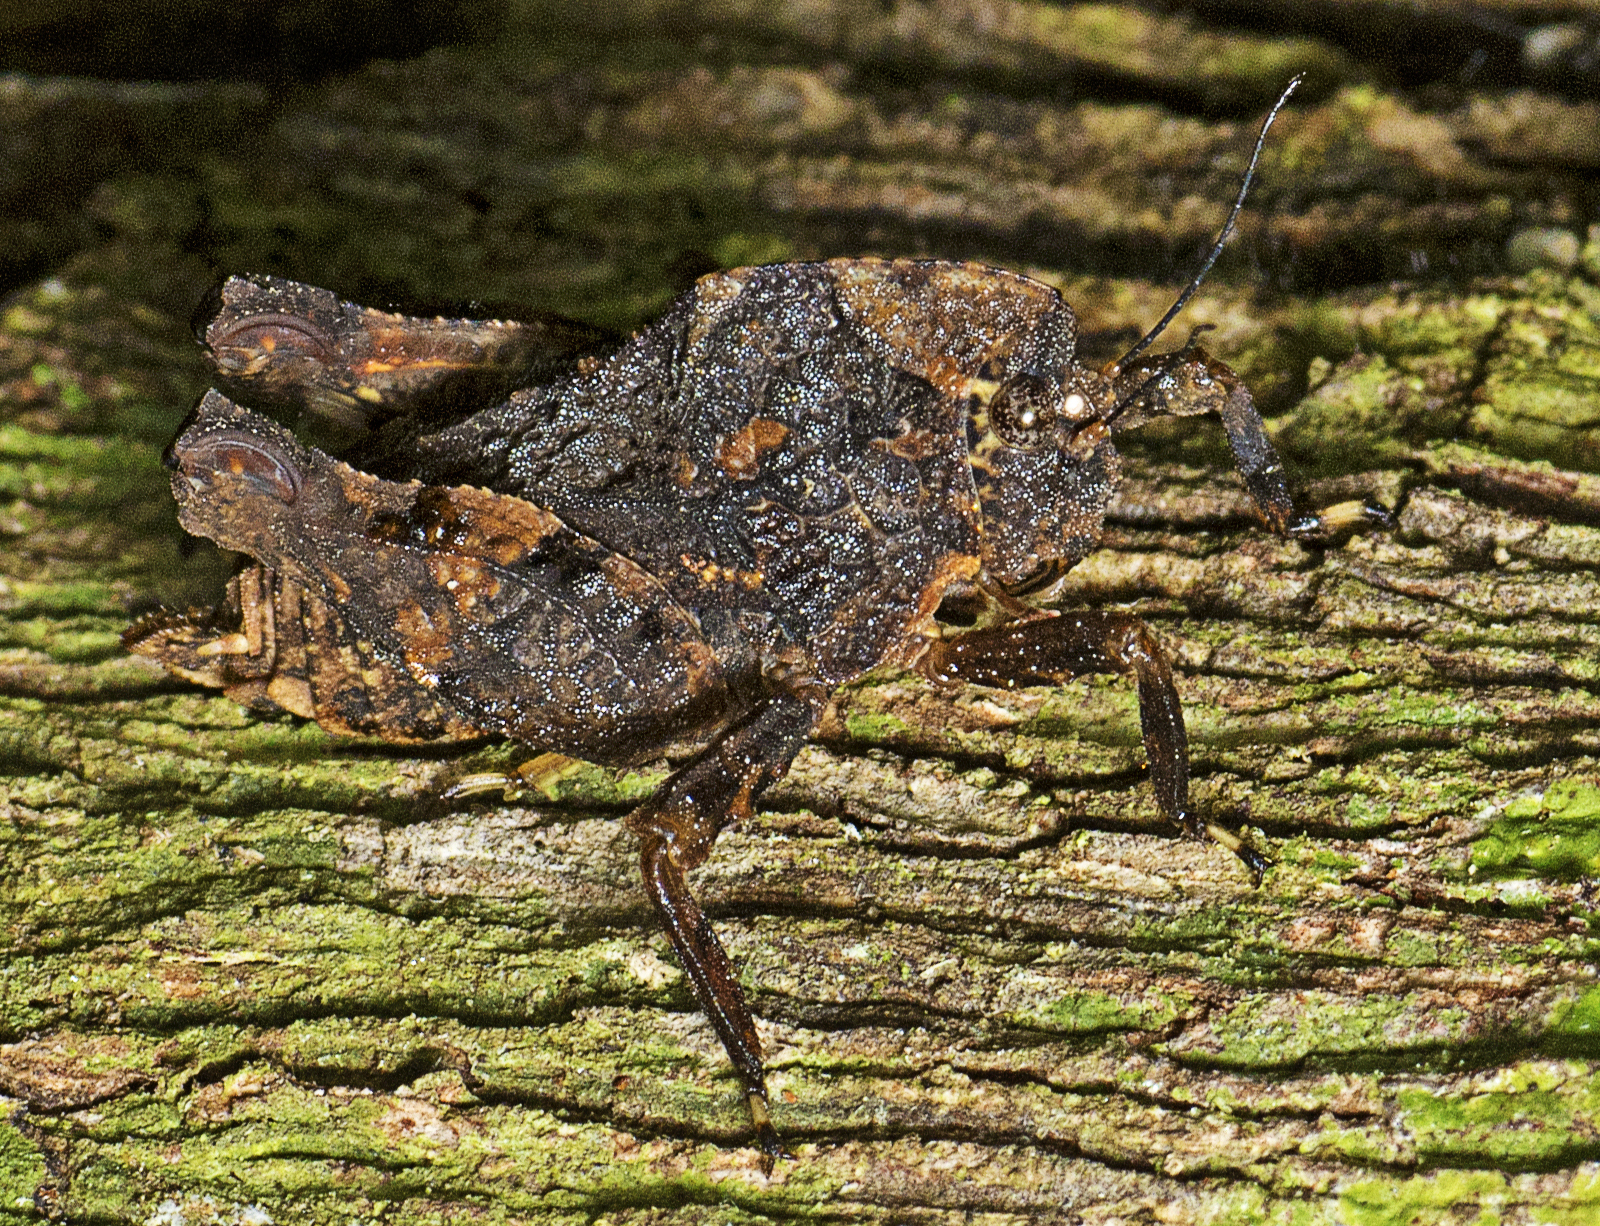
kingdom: Animalia
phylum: Arthropoda
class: Insecta
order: Orthoptera
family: Tetrigidae
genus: Paraselina
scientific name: Paraselina brunneri
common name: Angled australian barkhopper
